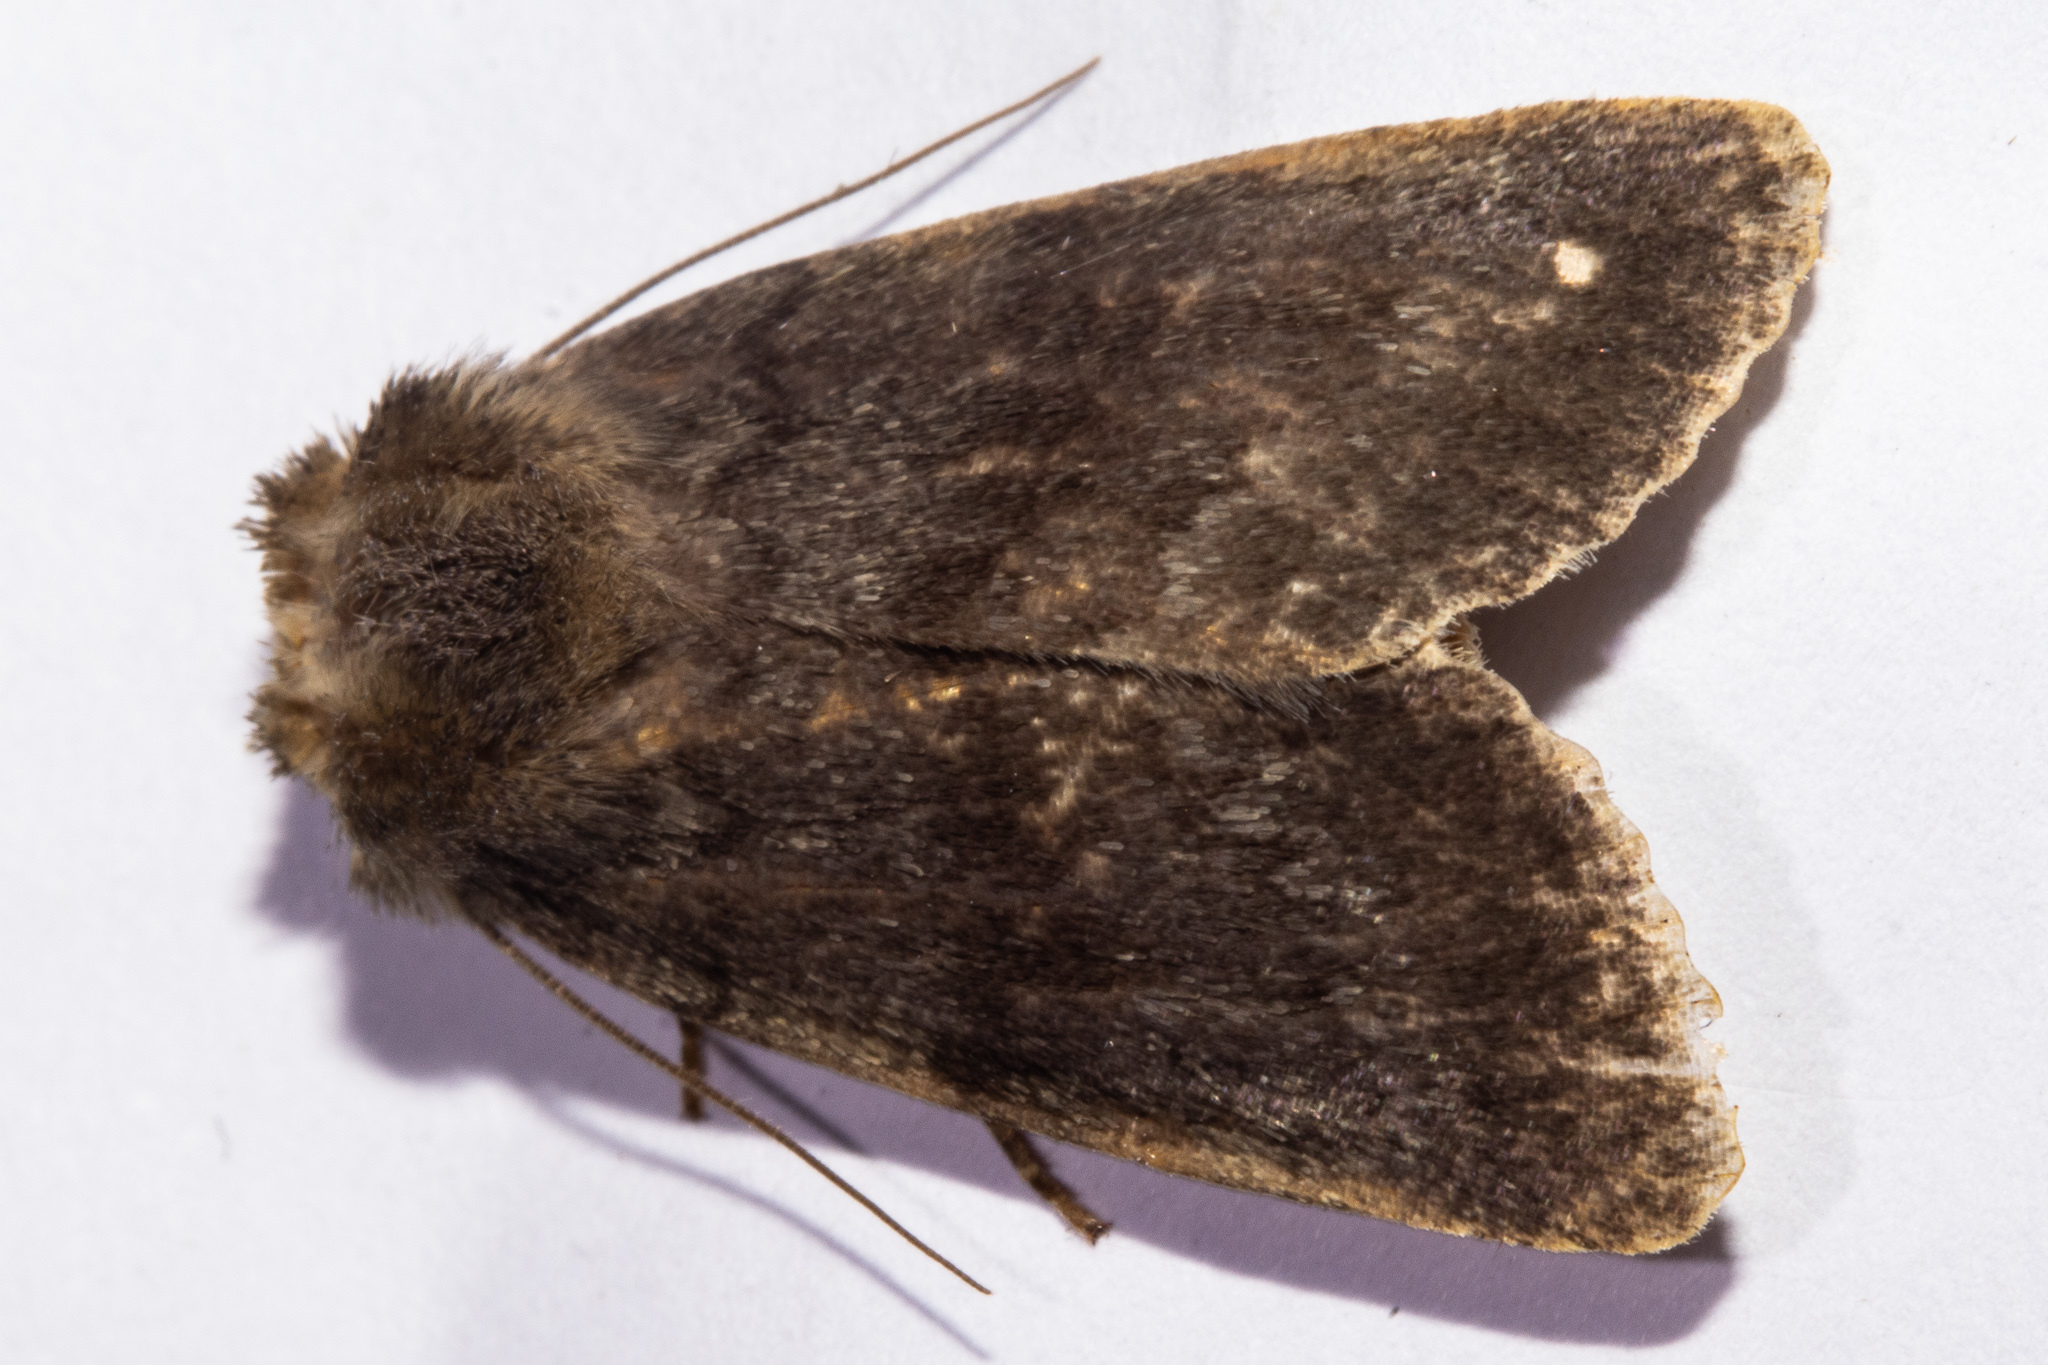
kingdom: Animalia
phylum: Arthropoda
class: Insecta
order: Lepidoptera
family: Noctuidae
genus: Bityla
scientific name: Bityla sericea
